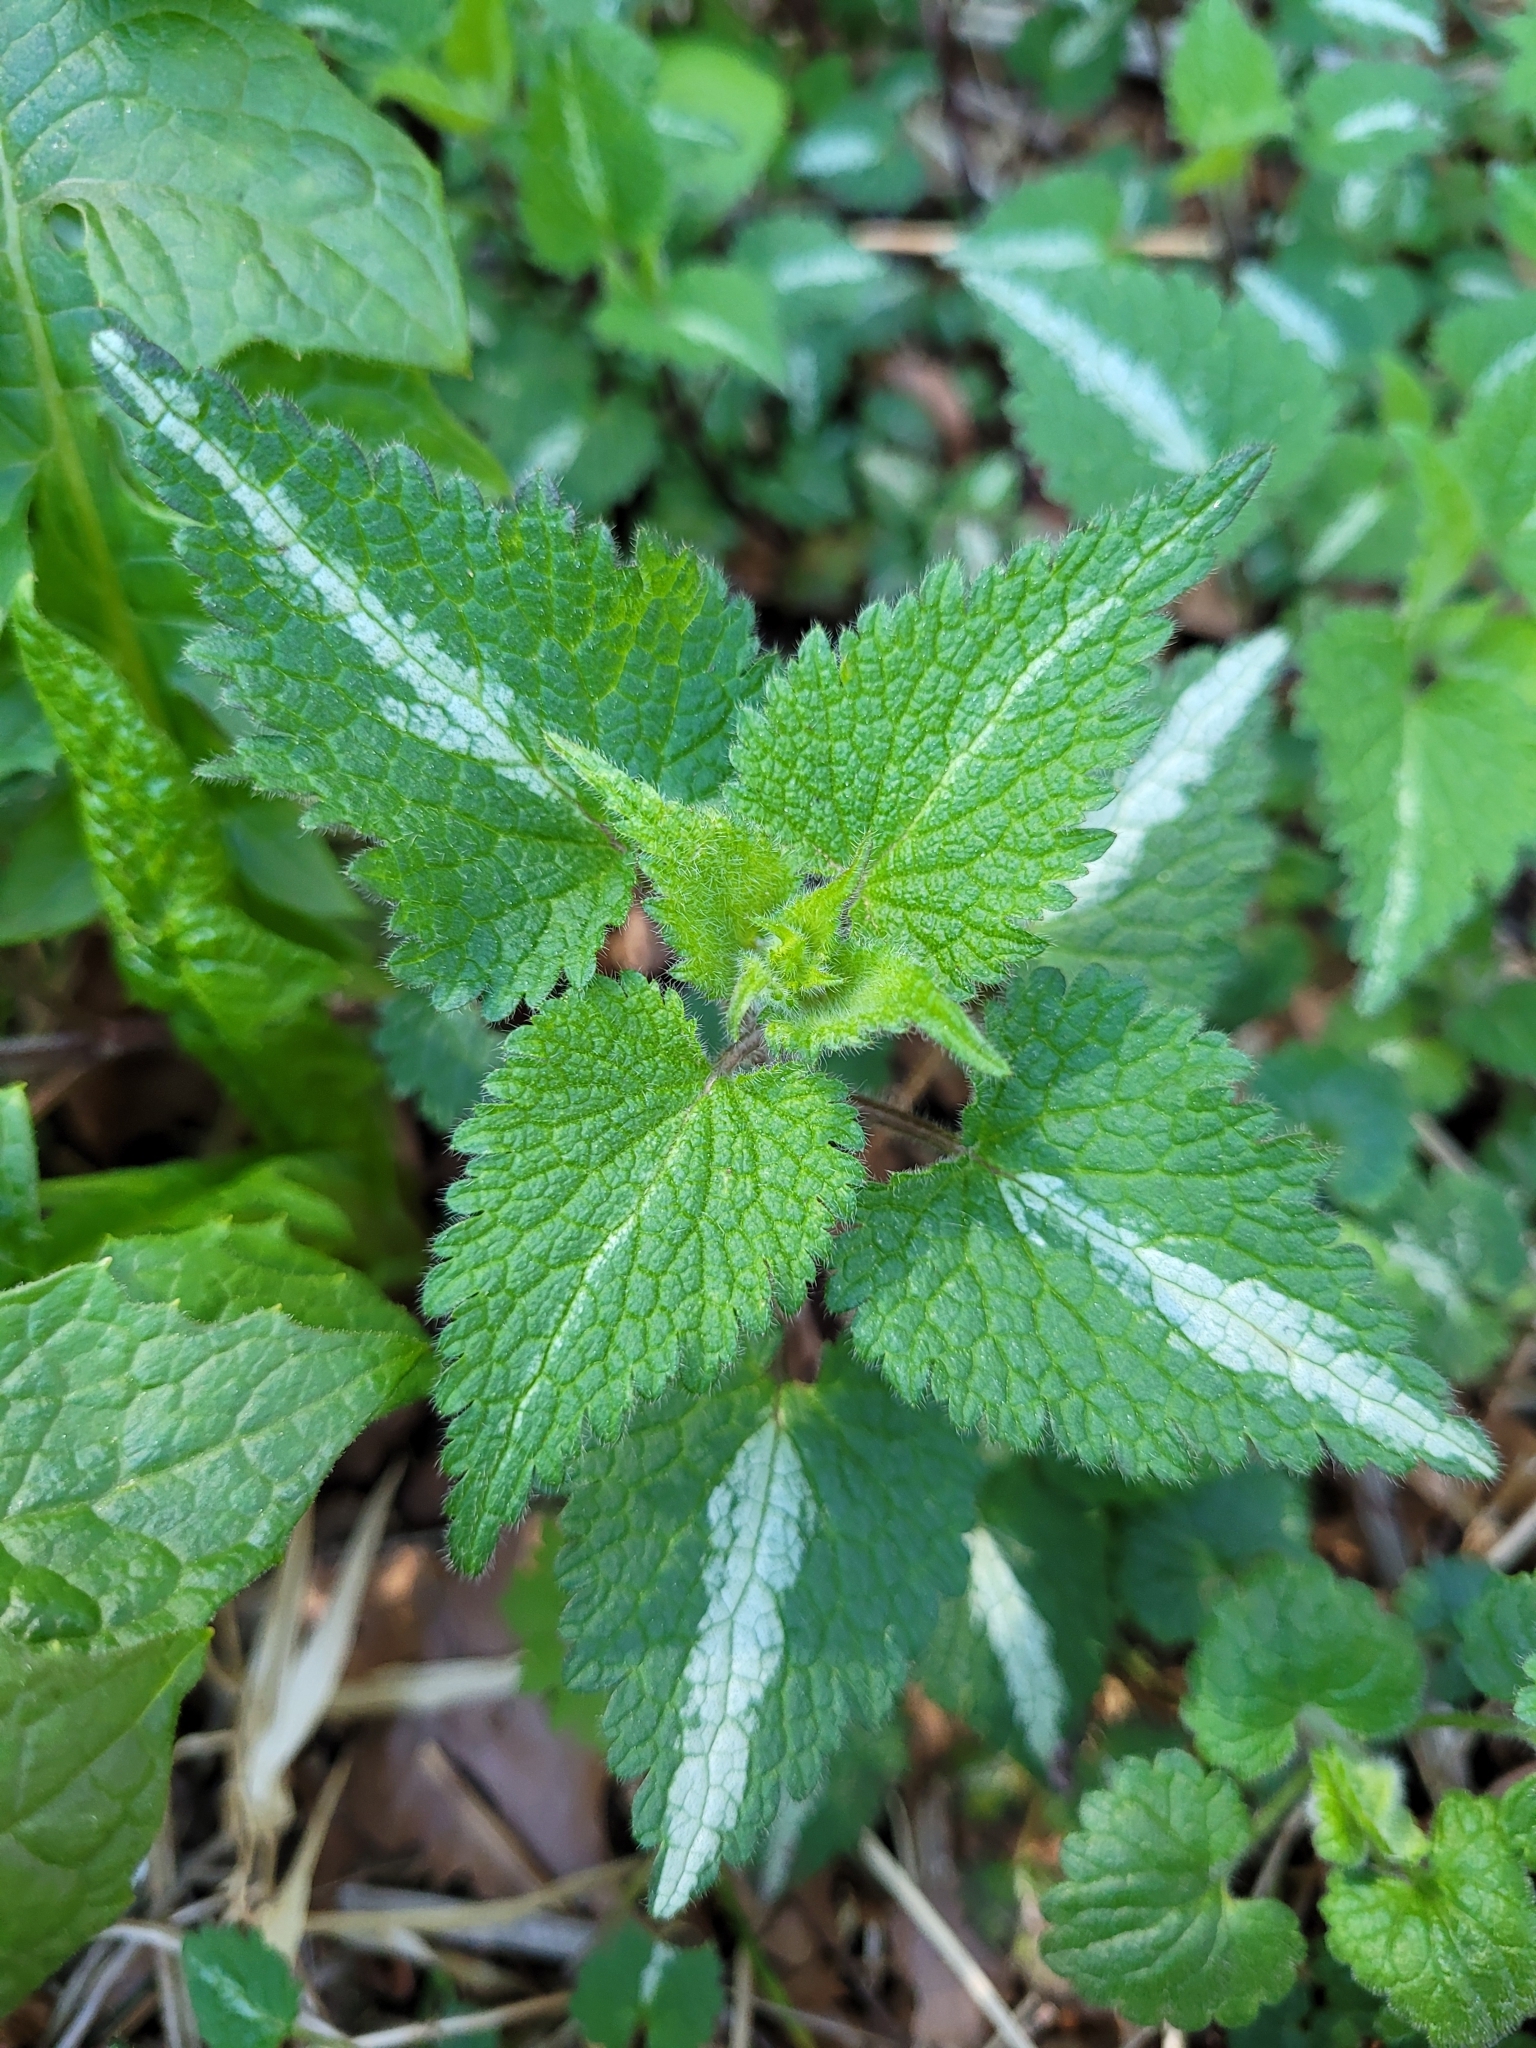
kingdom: Plantae
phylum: Tracheophyta
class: Magnoliopsida
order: Lamiales
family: Lamiaceae
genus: Lamium
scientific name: Lamium maculatum
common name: Spotted dead-nettle
